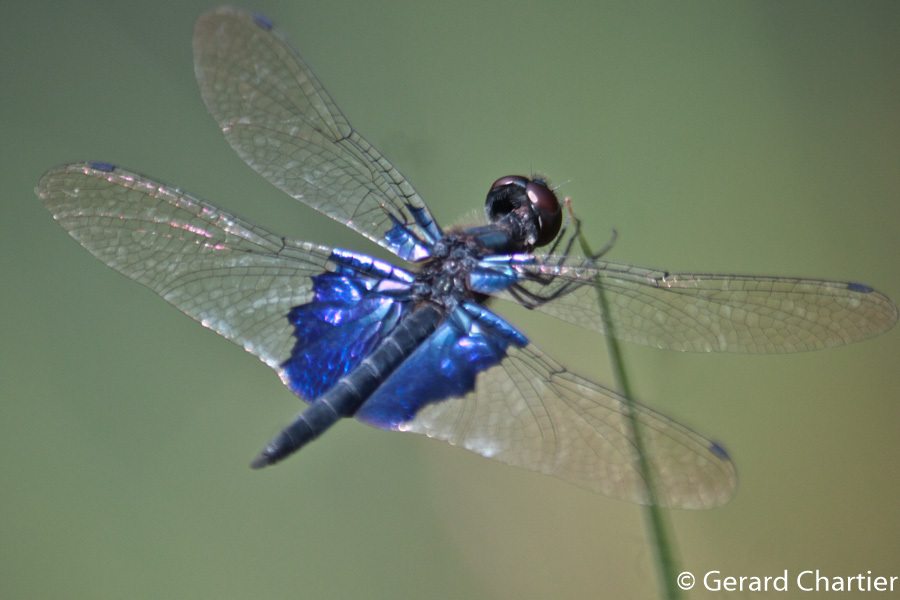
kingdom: Animalia
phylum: Arthropoda
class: Insecta
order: Odonata
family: Libellulidae
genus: Rhyothemis
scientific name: Rhyothemis triangularis
